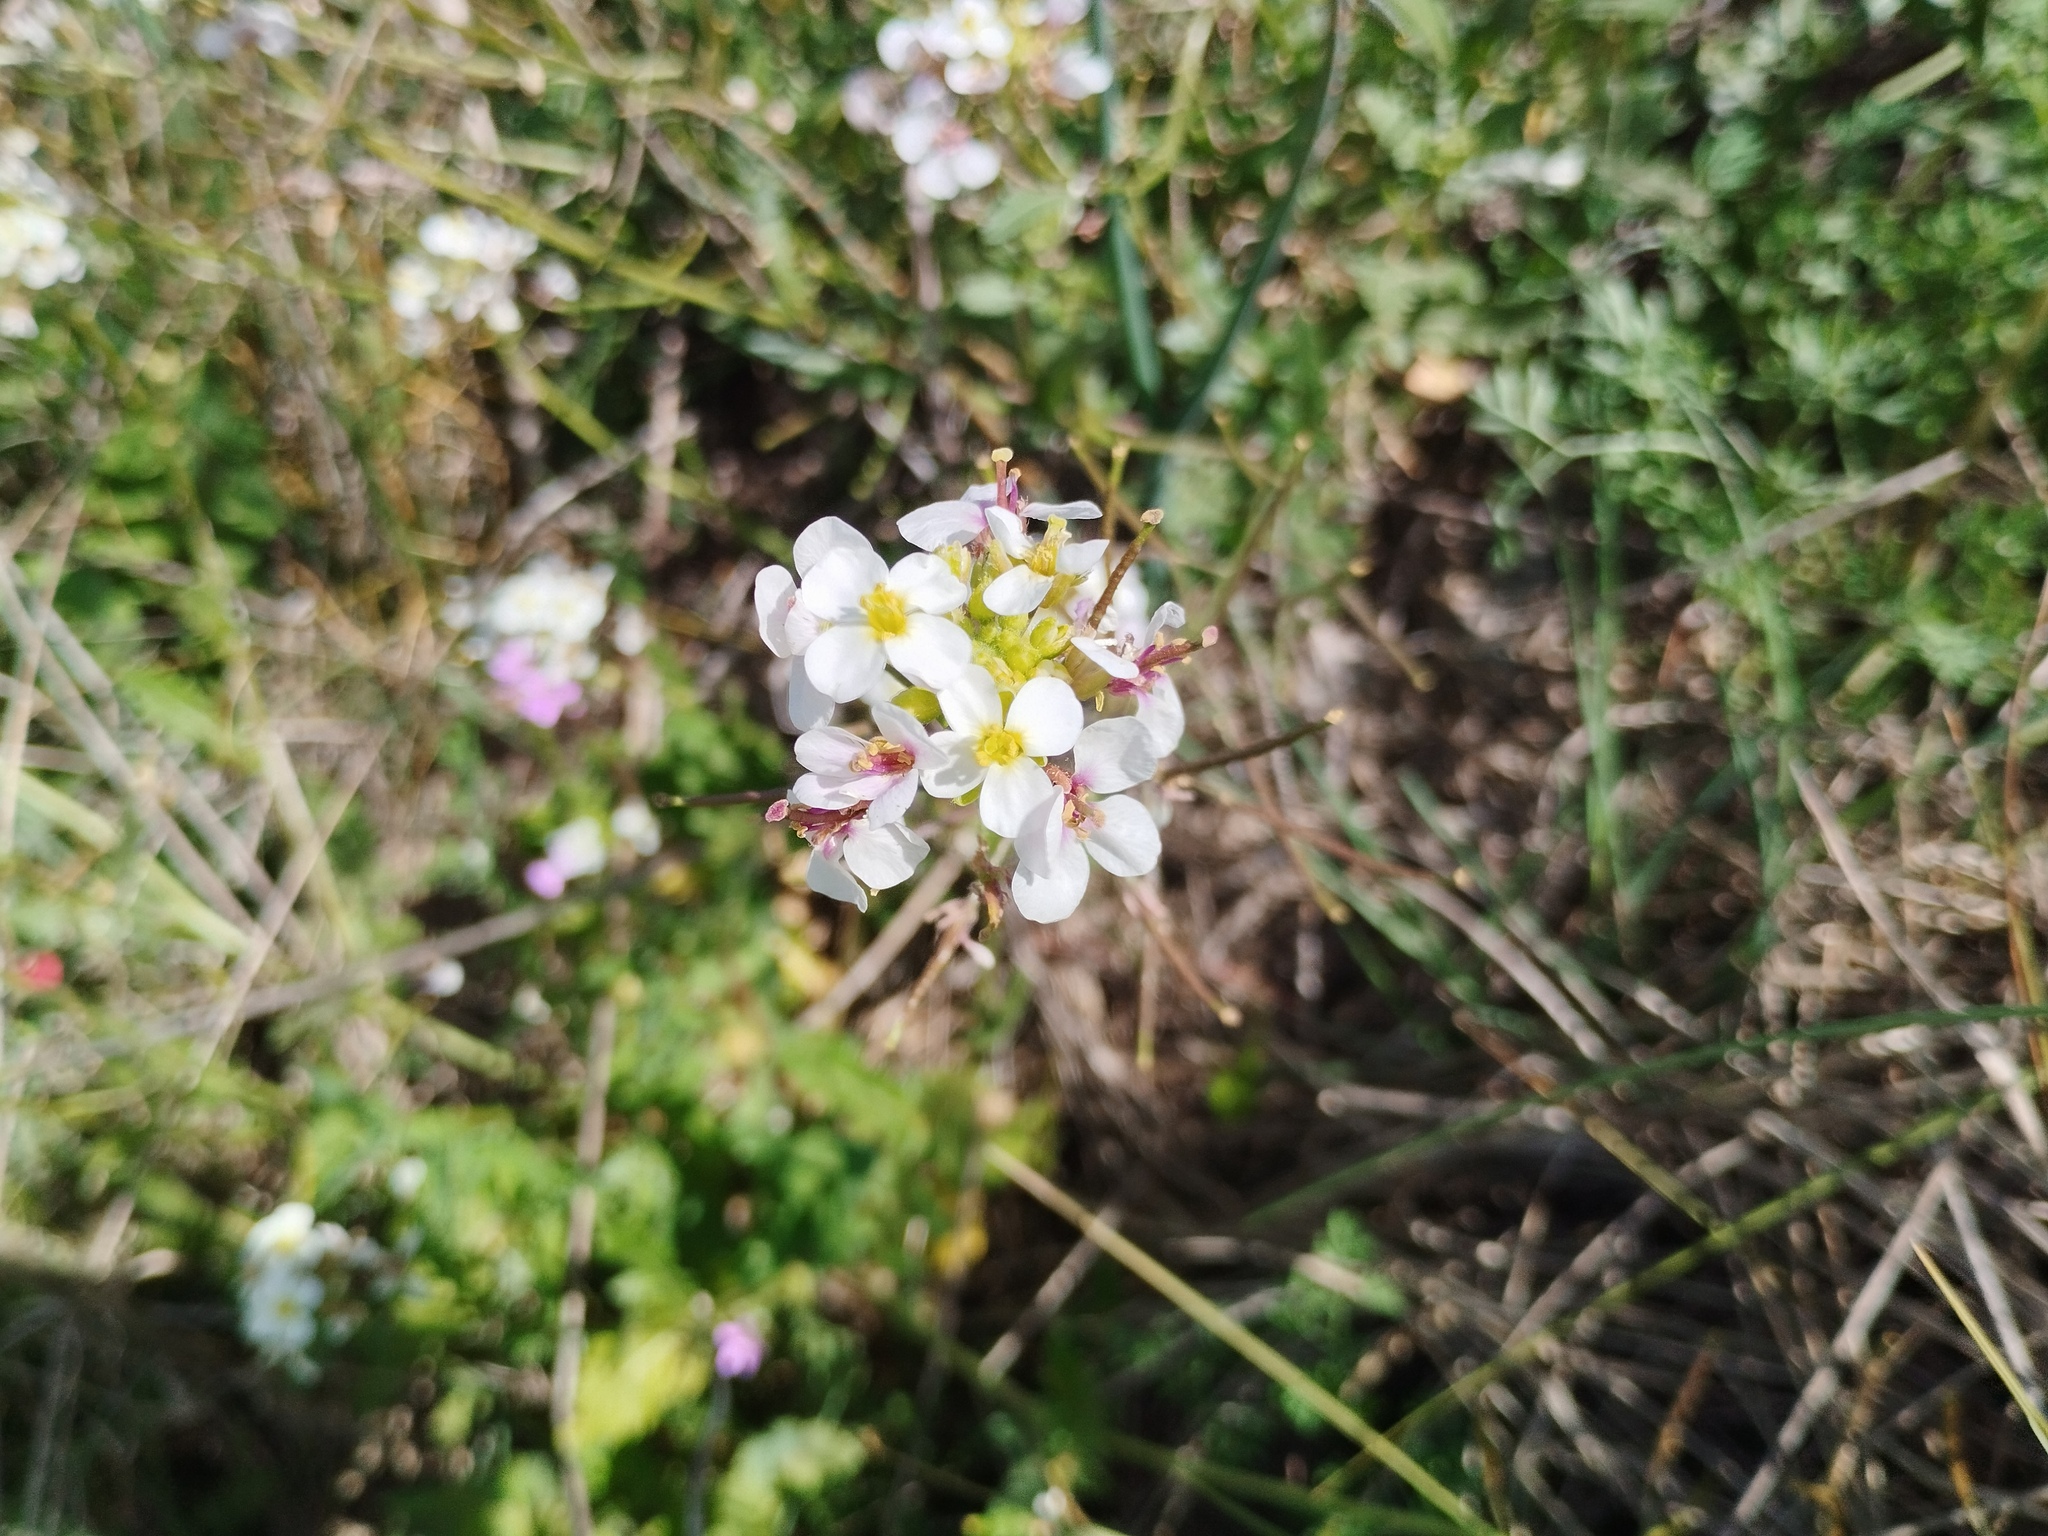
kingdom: Plantae
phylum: Tracheophyta
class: Magnoliopsida
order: Brassicales
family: Brassicaceae
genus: Diplotaxis
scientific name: Diplotaxis erucoides
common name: White rocket
